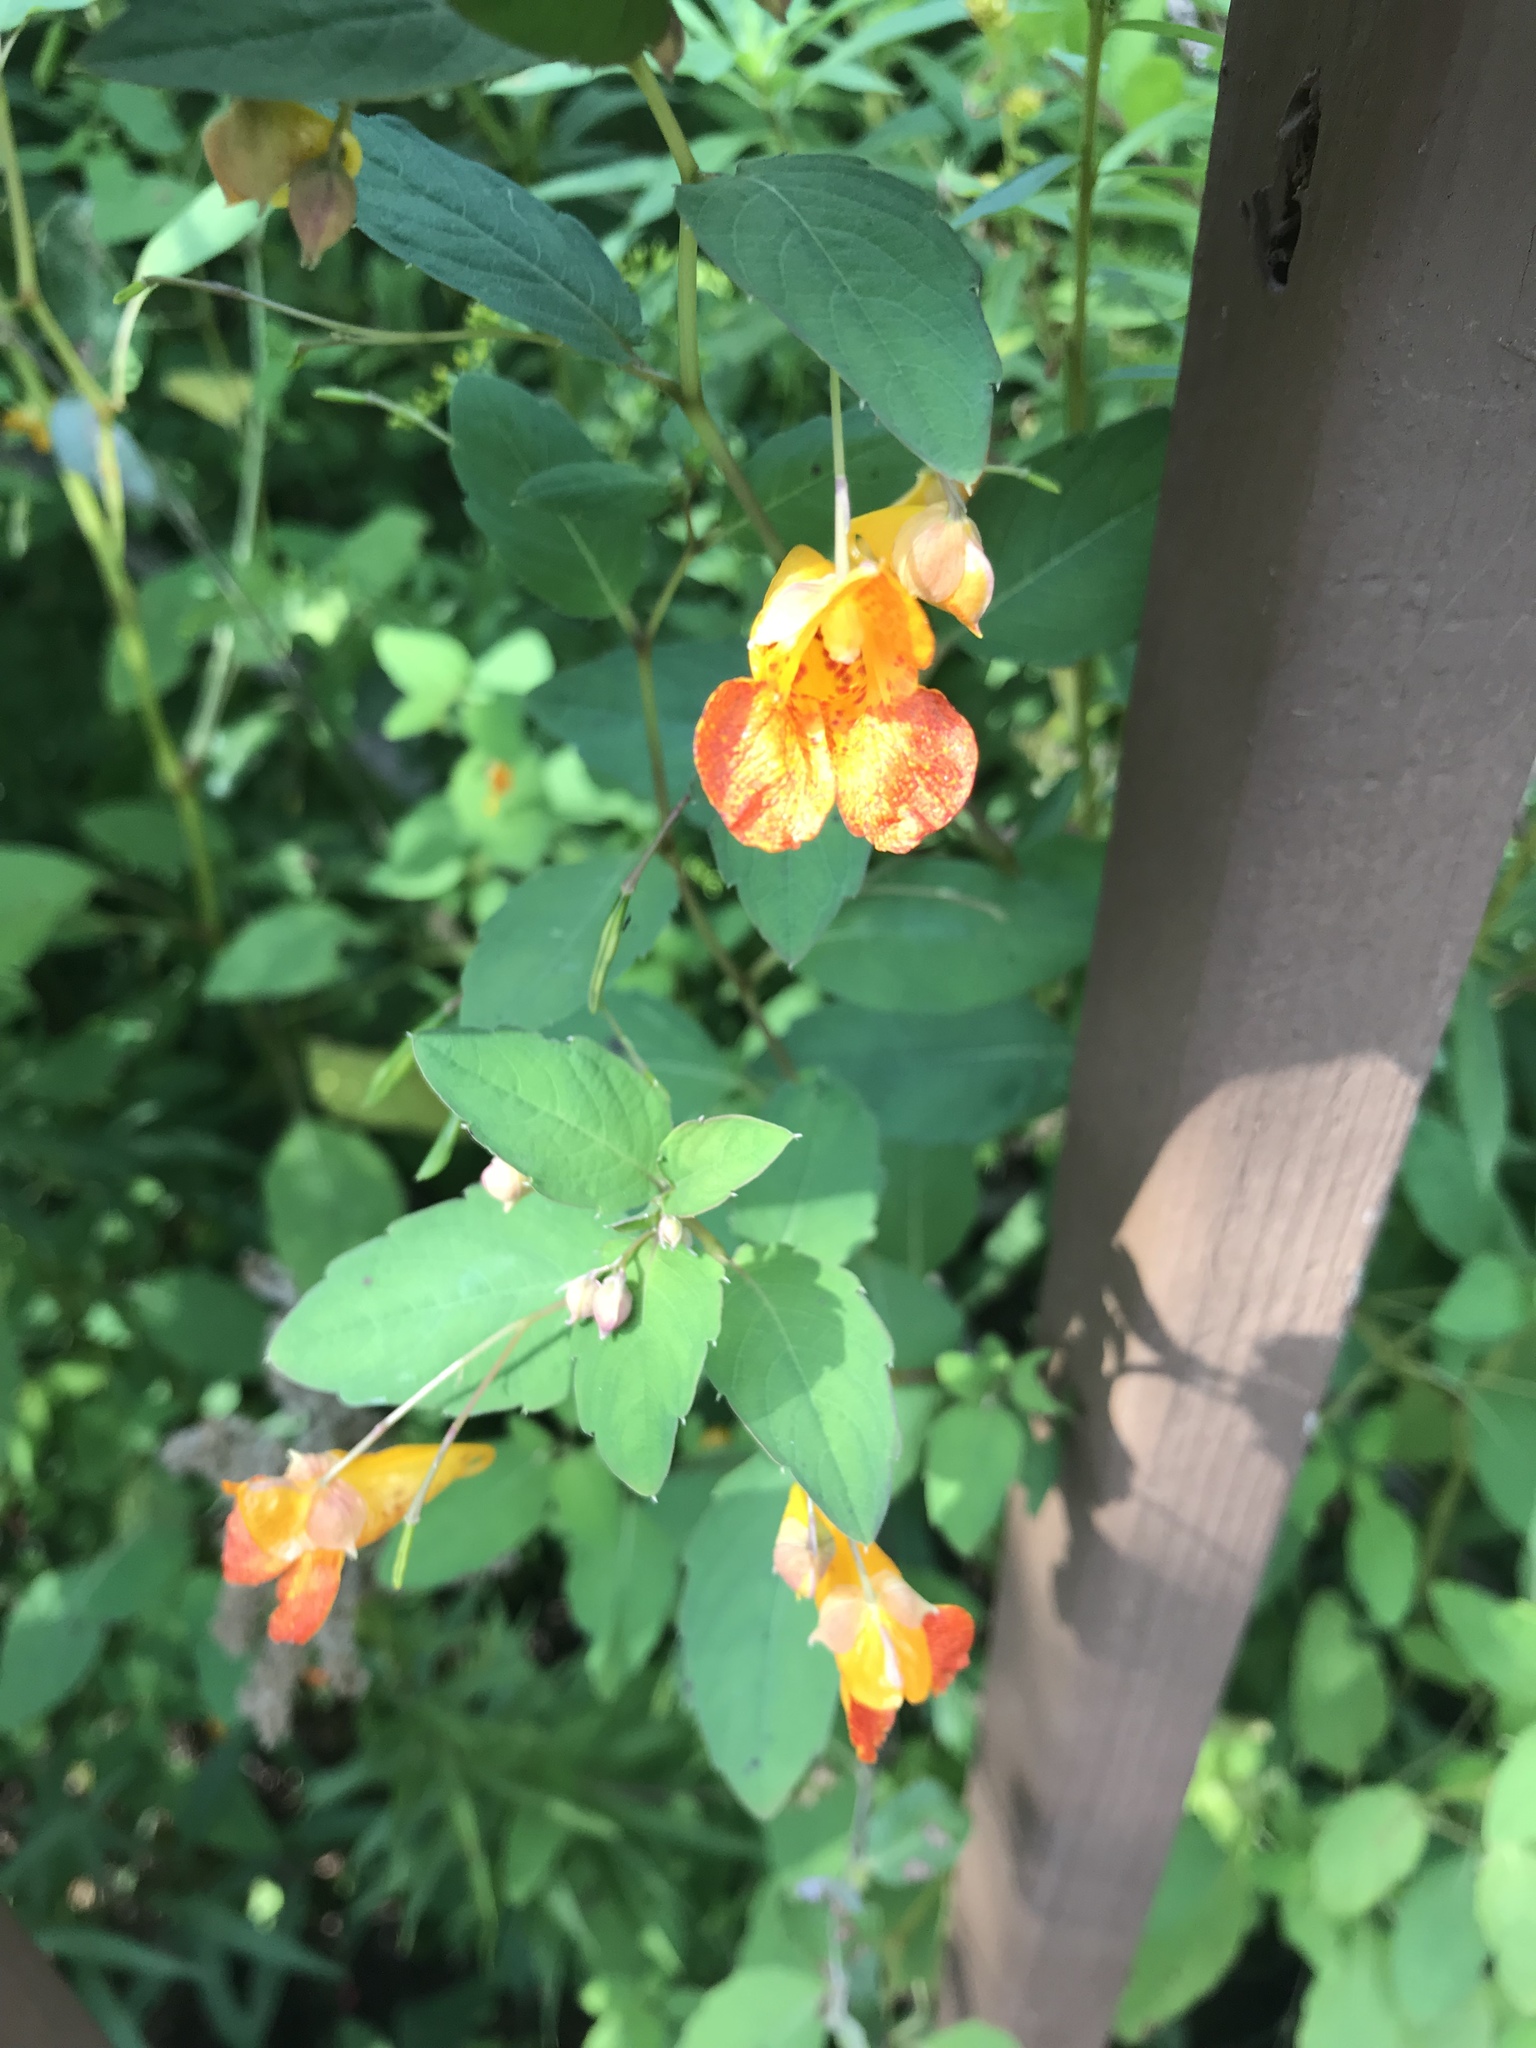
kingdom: Plantae
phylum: Tracheophyta
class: Magnoliopsida
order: Ericales
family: Balsaminaceae
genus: Impatiens
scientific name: Impatiens capensis
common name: Orange balsam
